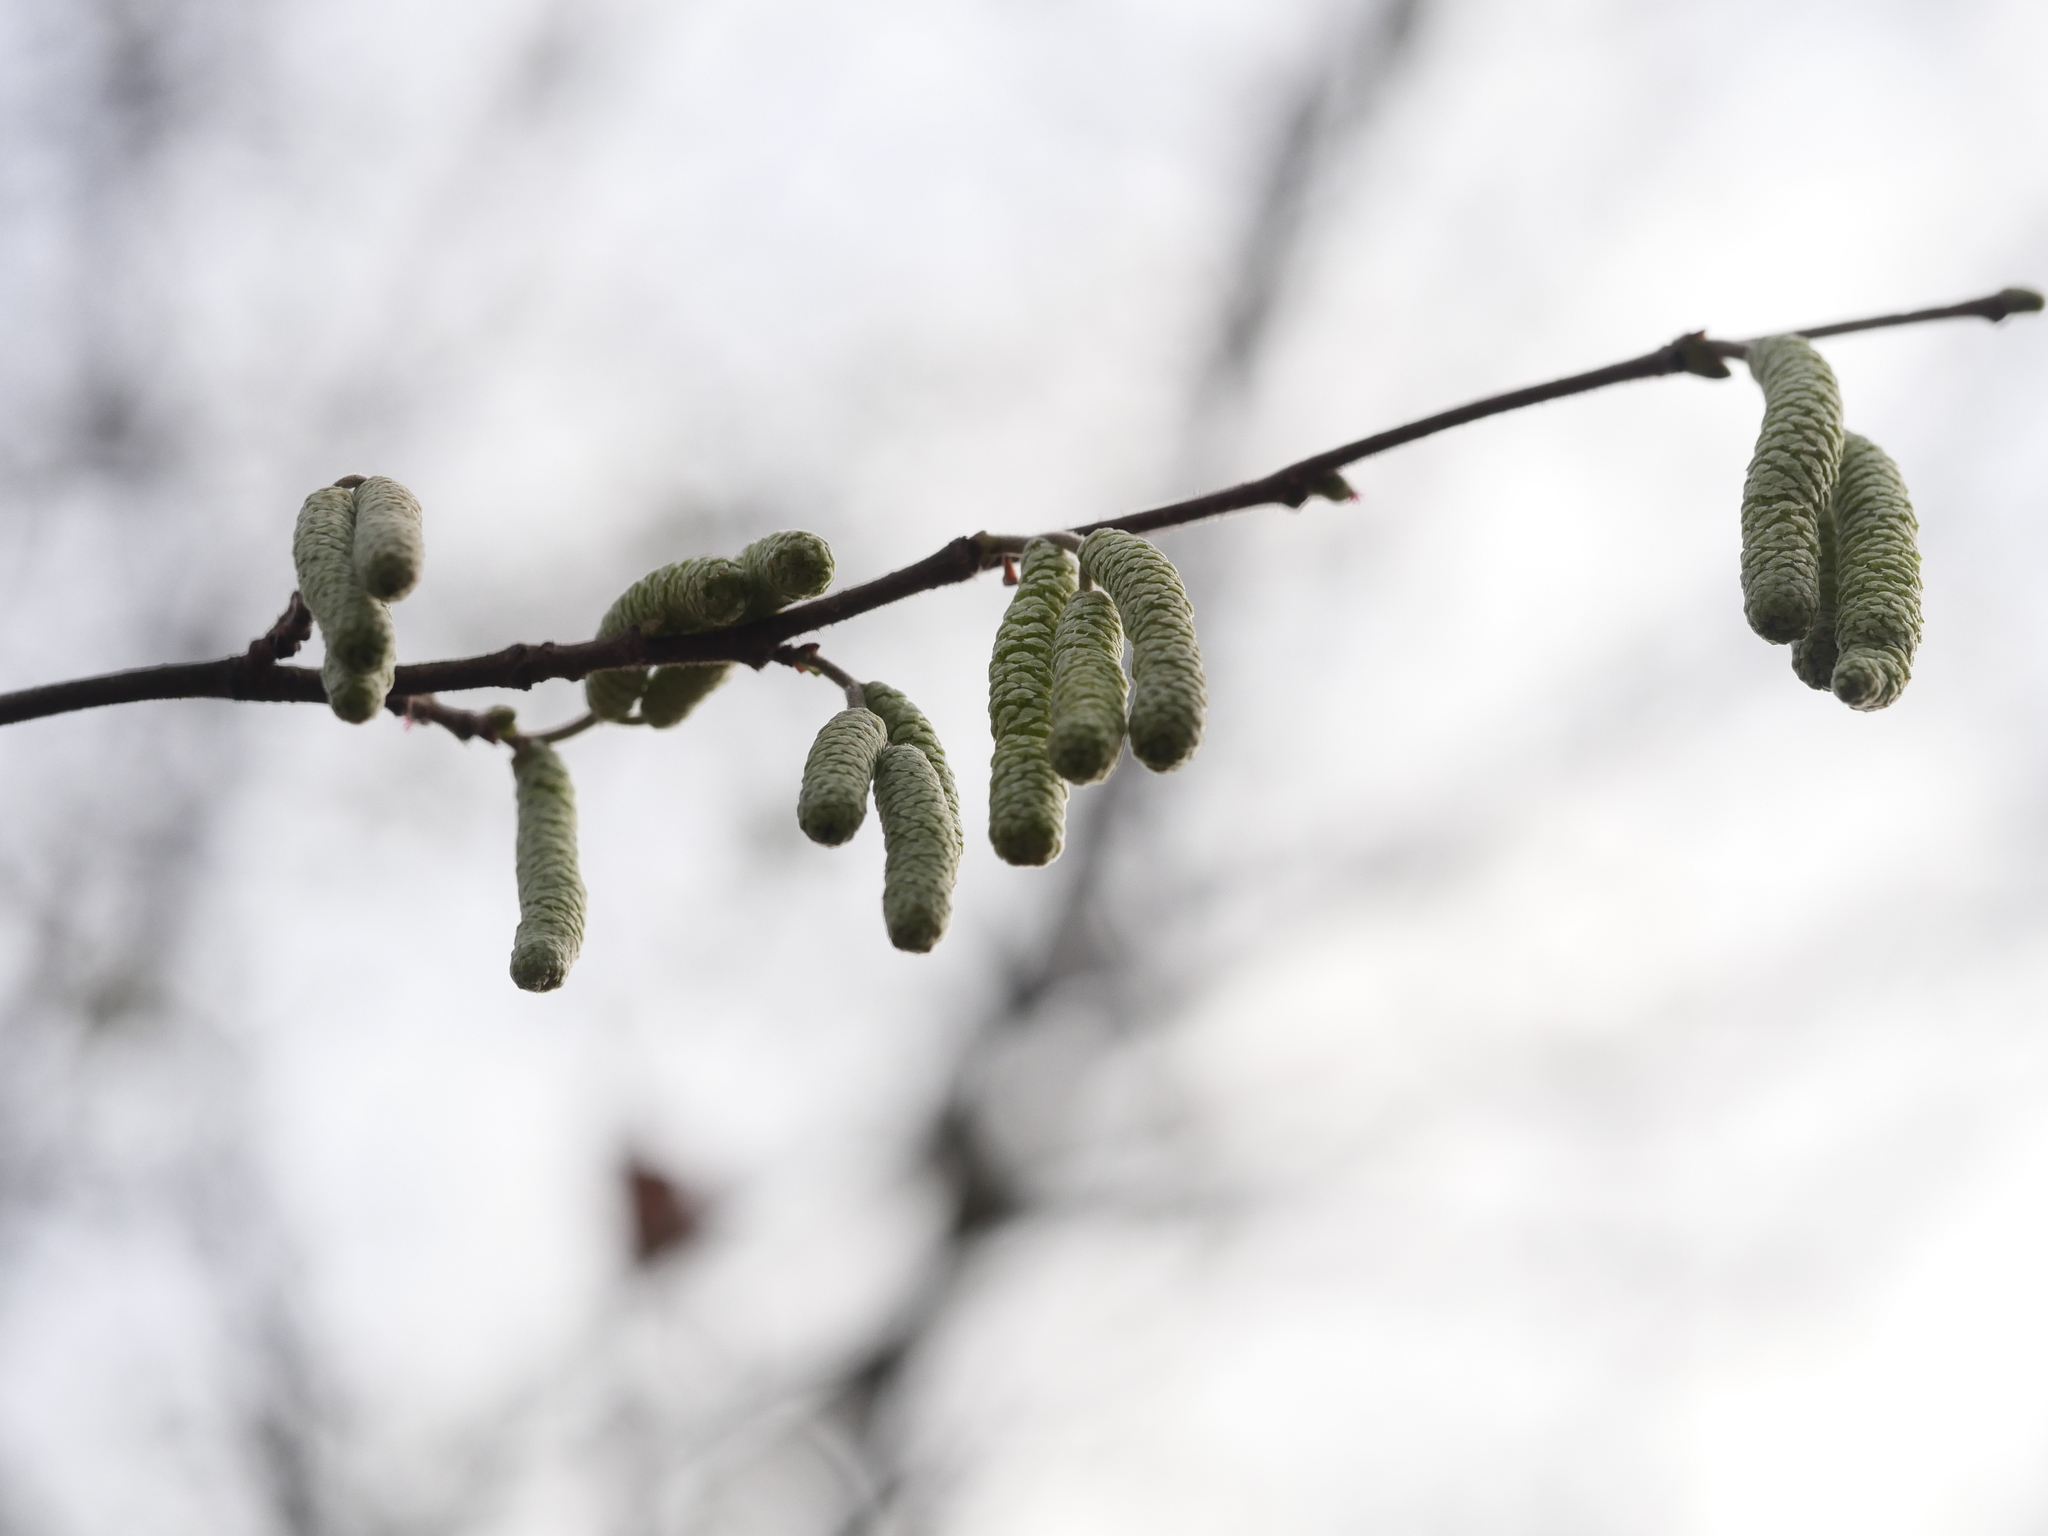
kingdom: Plantae
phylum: Tracheophyta
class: Magnoliopsida
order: Fagales
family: Betulaceae
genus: Corylus
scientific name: Corylus avellana
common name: European hazel
